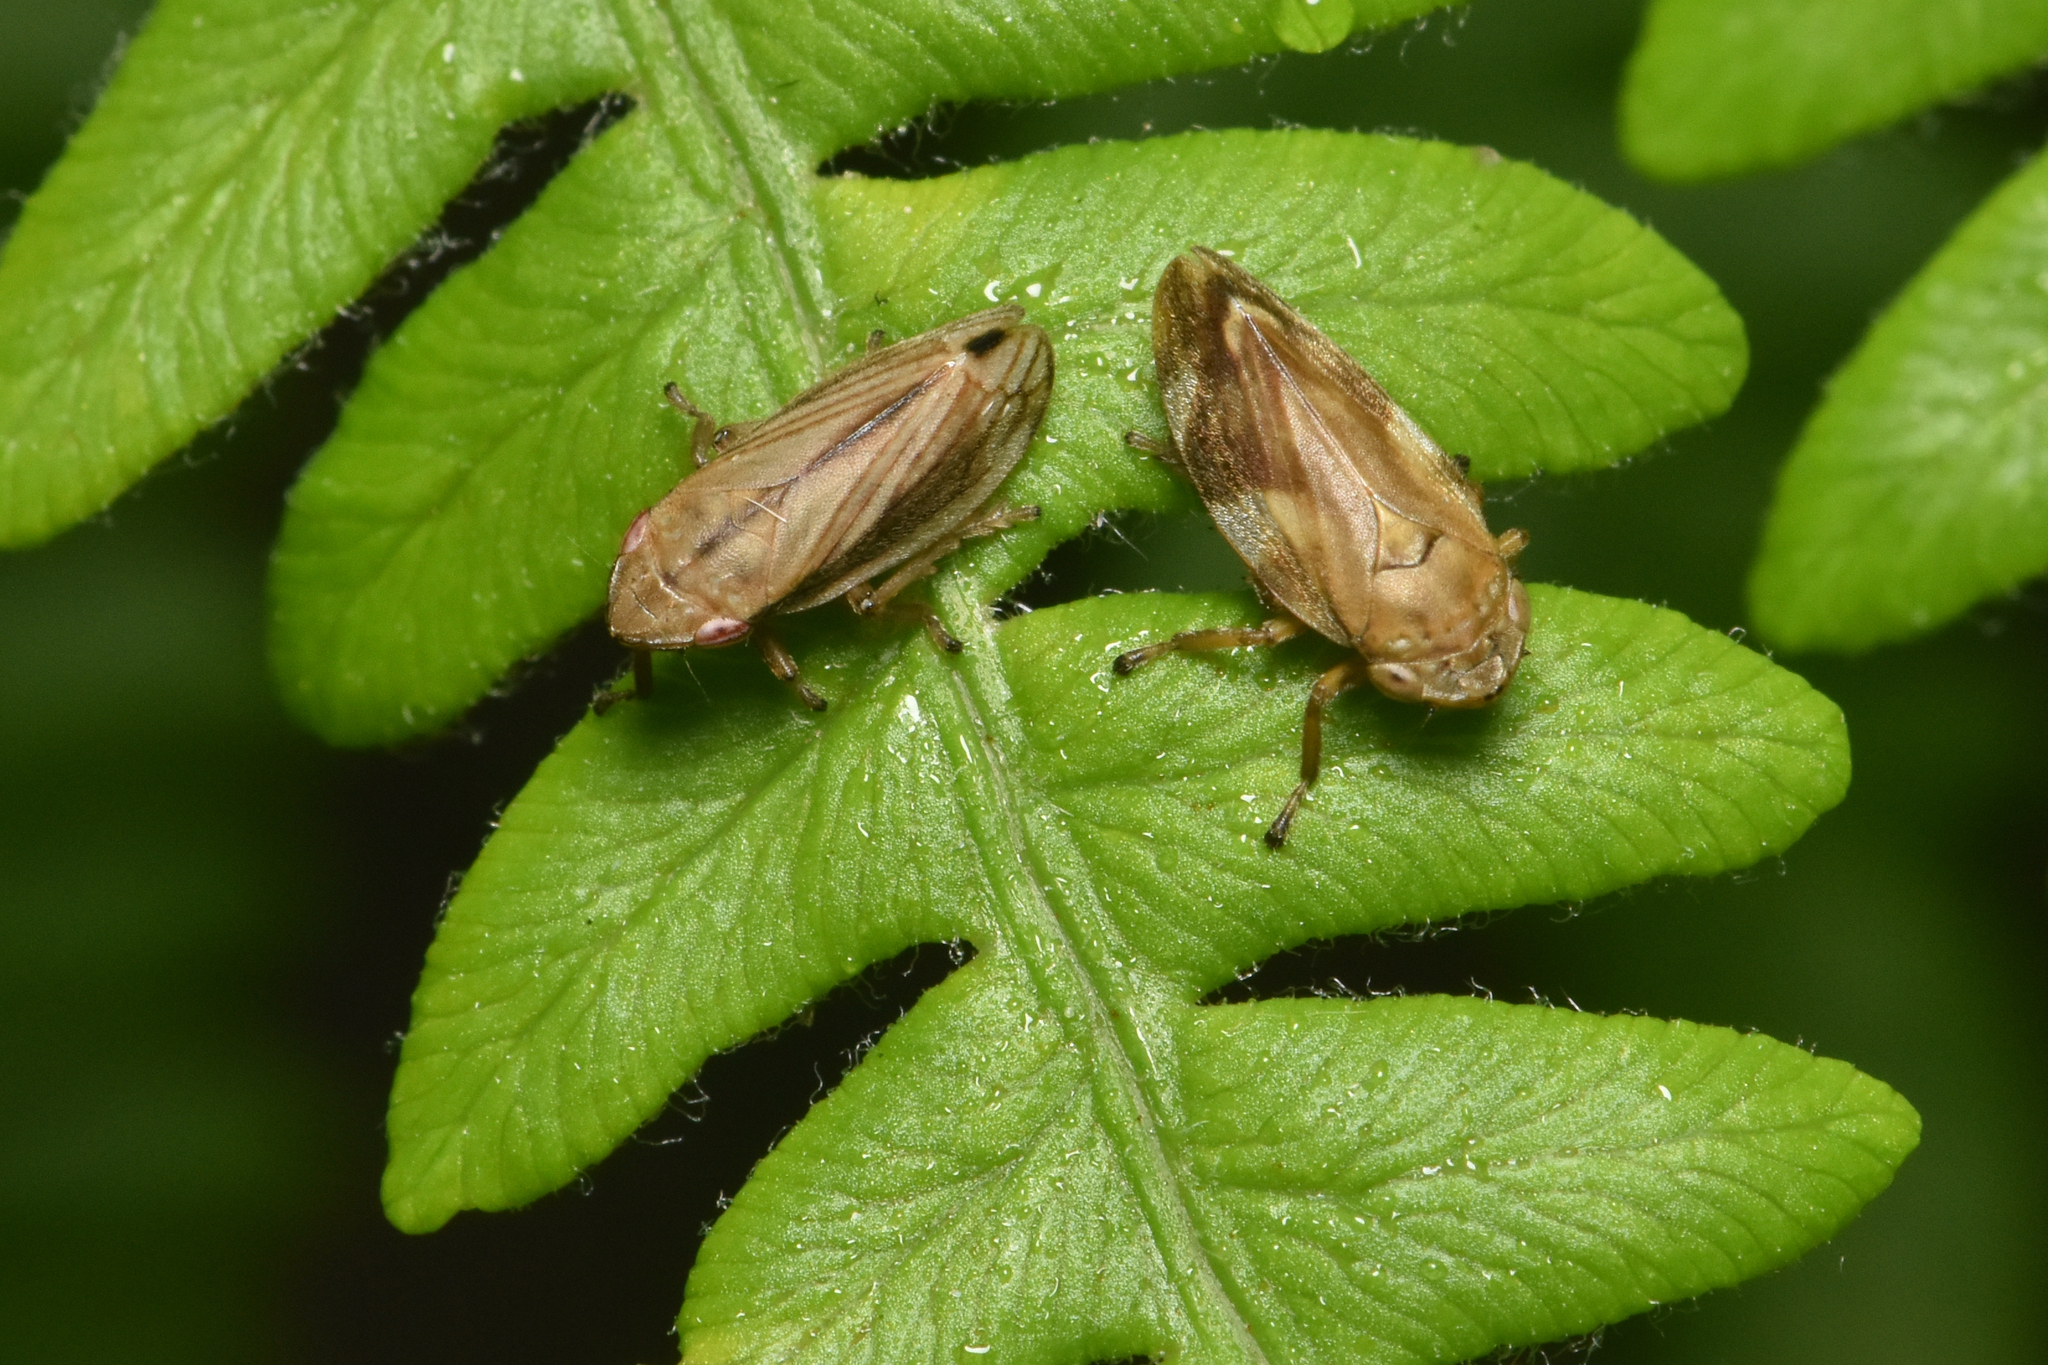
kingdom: Animalia
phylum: Arthropoda
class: Insecta
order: Hemiptera
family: Aphrophoridae
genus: Philaenus
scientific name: Philaenus spumarius
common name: Meadow spittlebug
